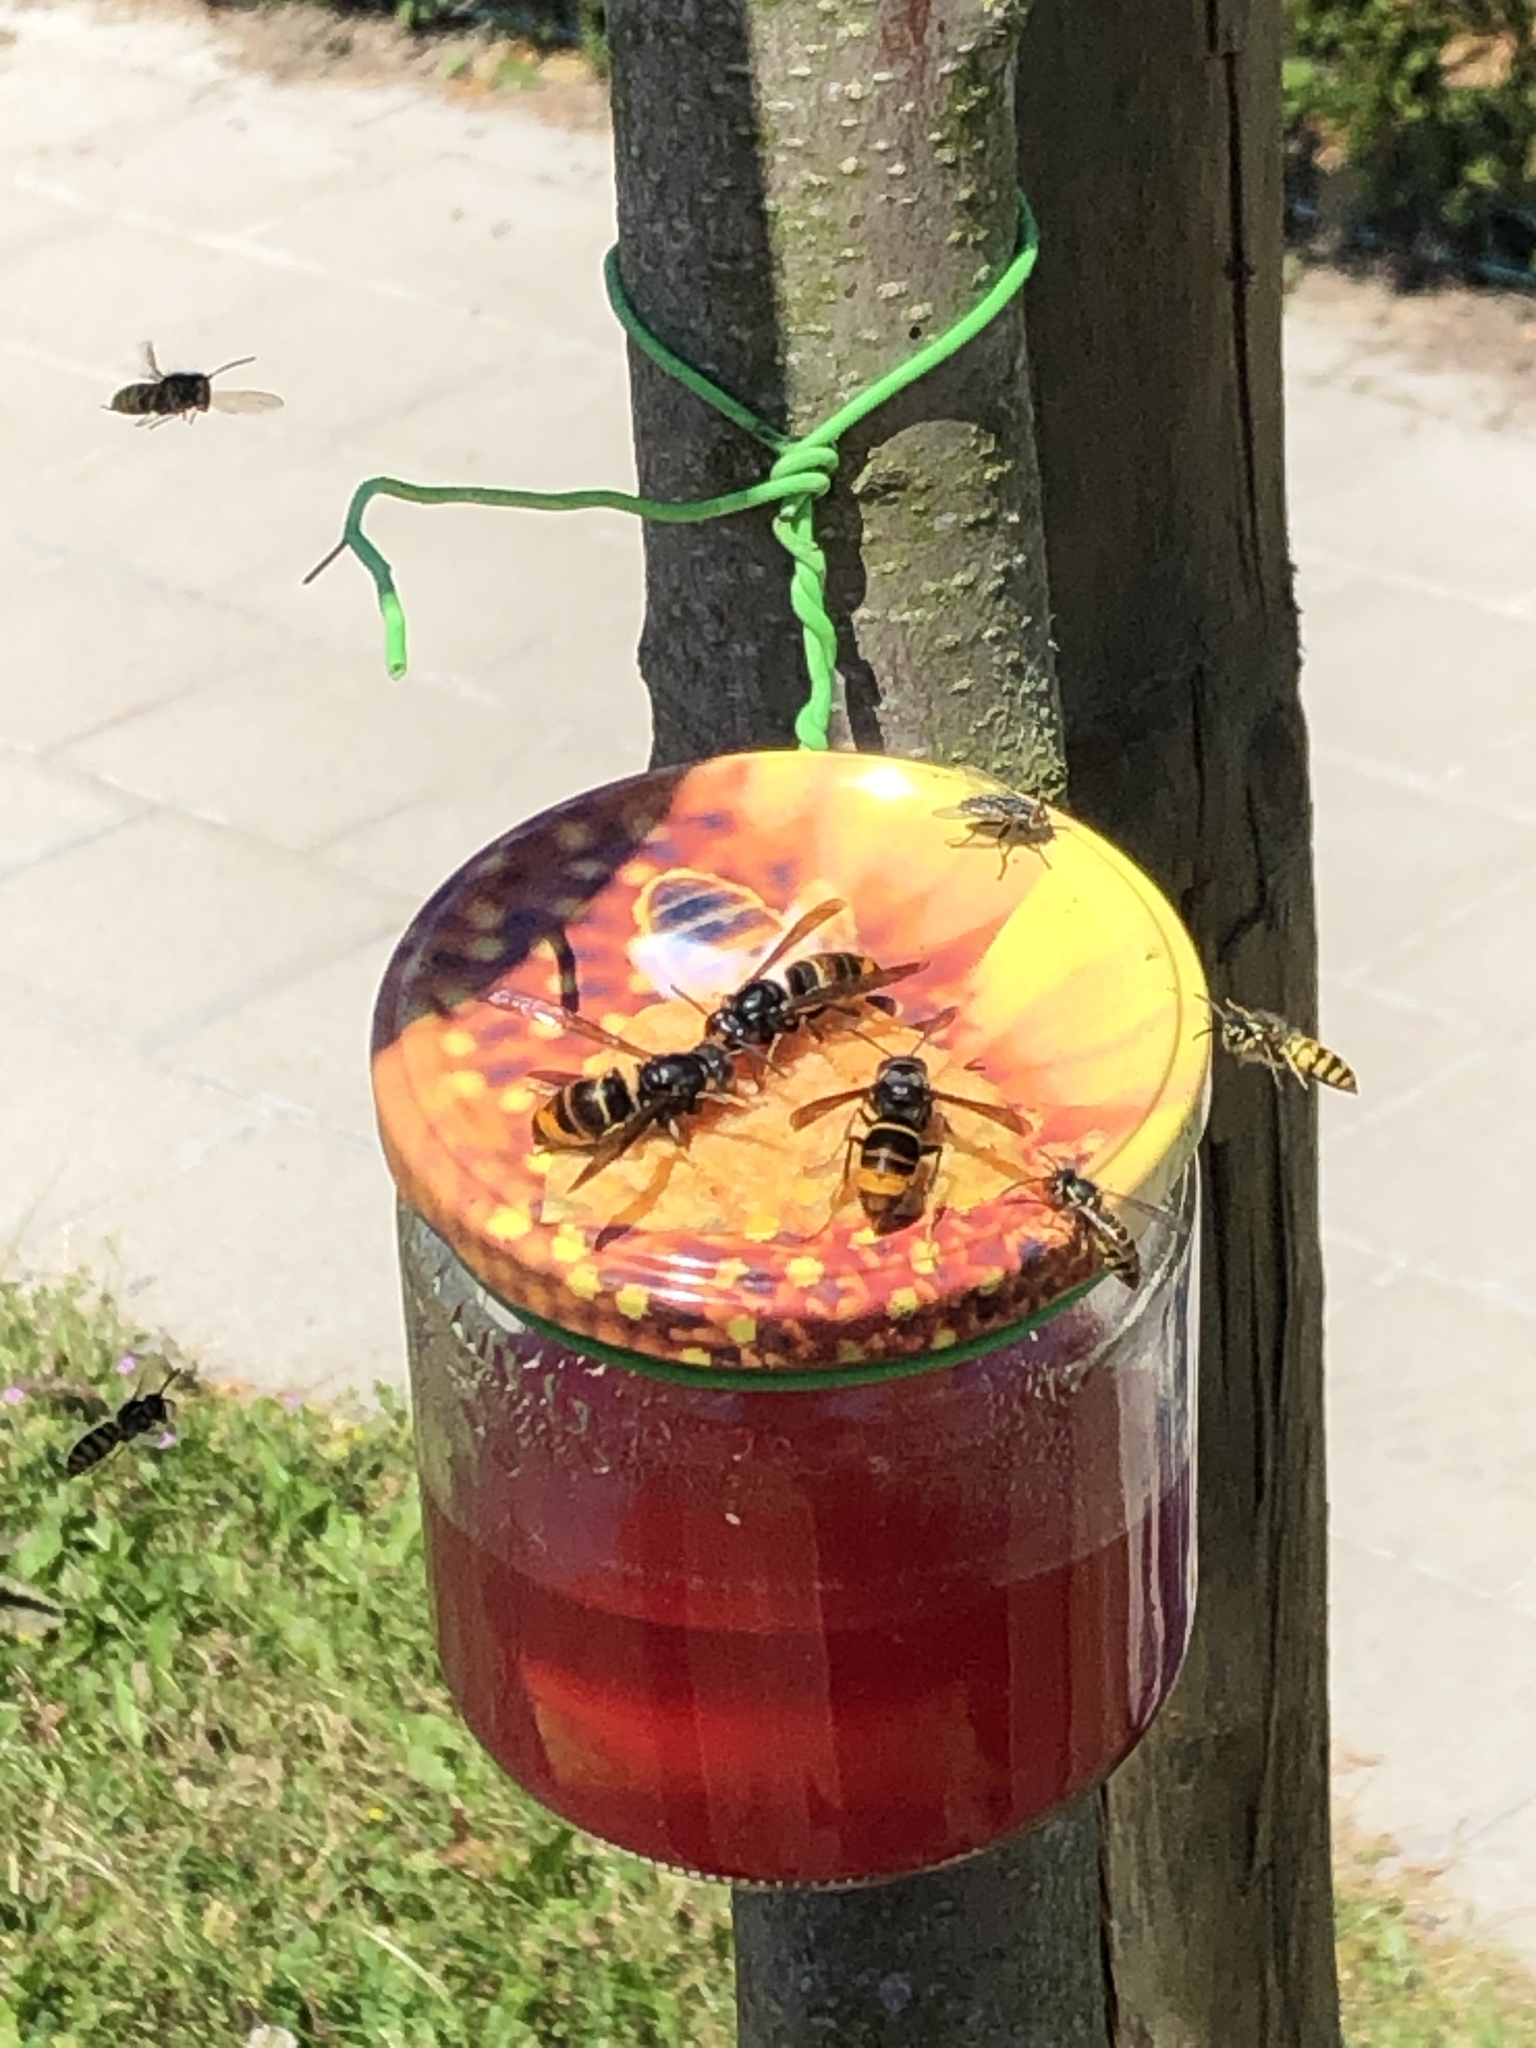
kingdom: Animalia
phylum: Arthropoda
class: Insecta
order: Hymenoptera
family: Vespidae
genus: Vespa
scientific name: Vespa velutina
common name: Asian hornet
